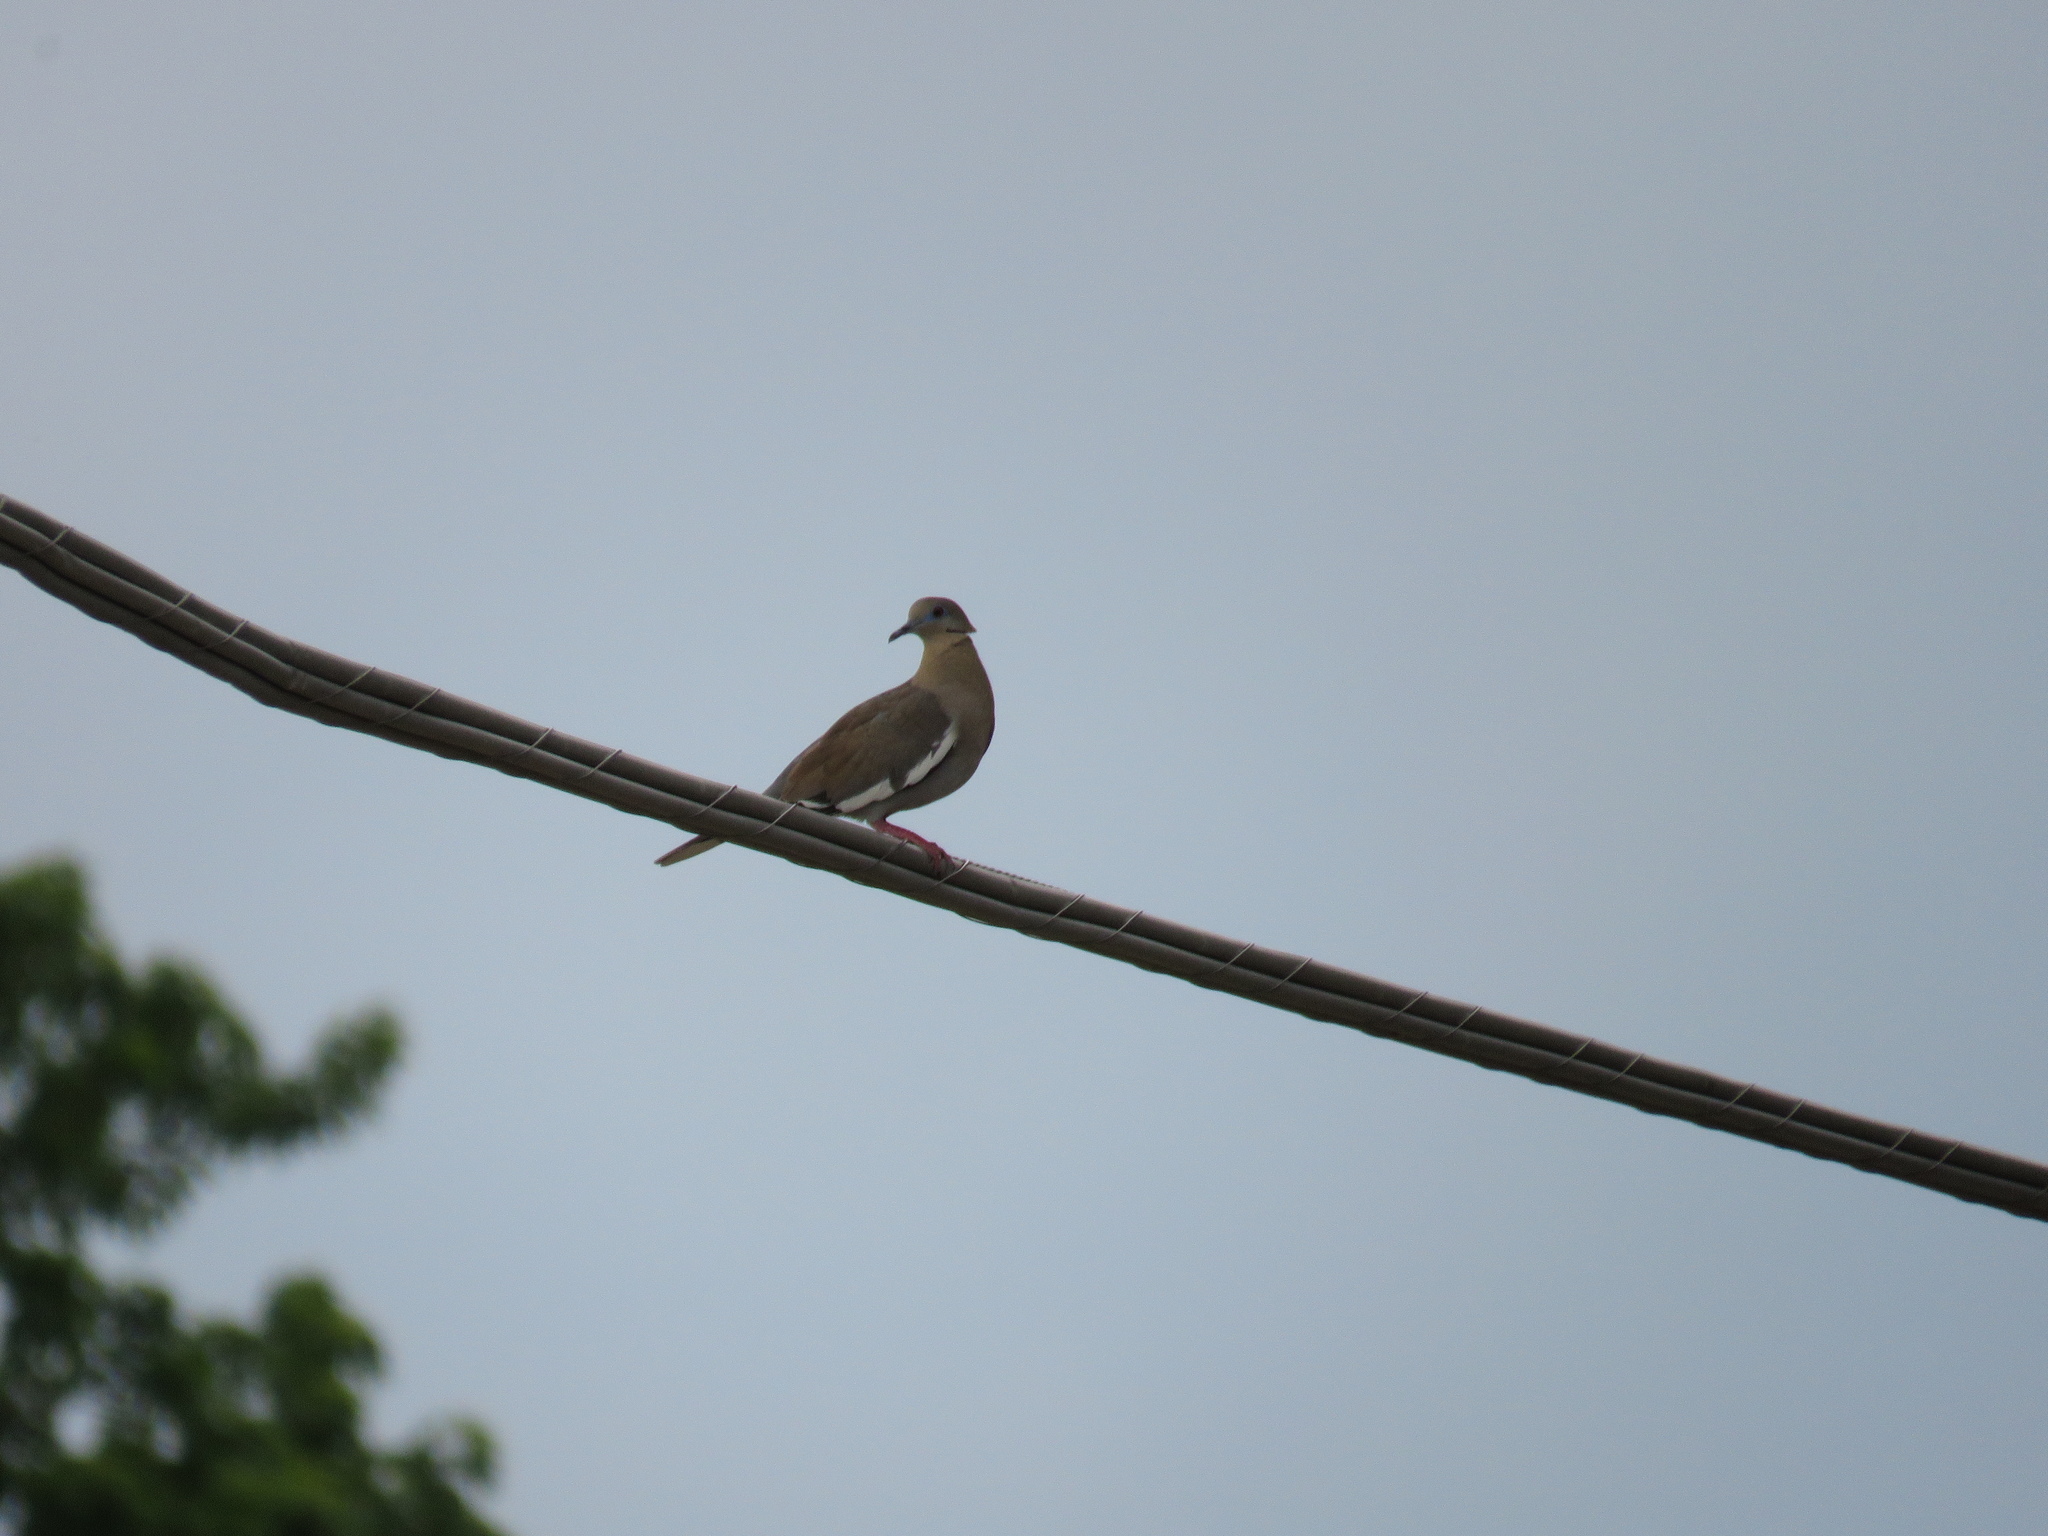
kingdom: Animalia
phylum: Chordata
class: Aves
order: Columbiformes
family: Columbidae
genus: Zenaida
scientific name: Zenaida asiatica
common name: White-winged dove
